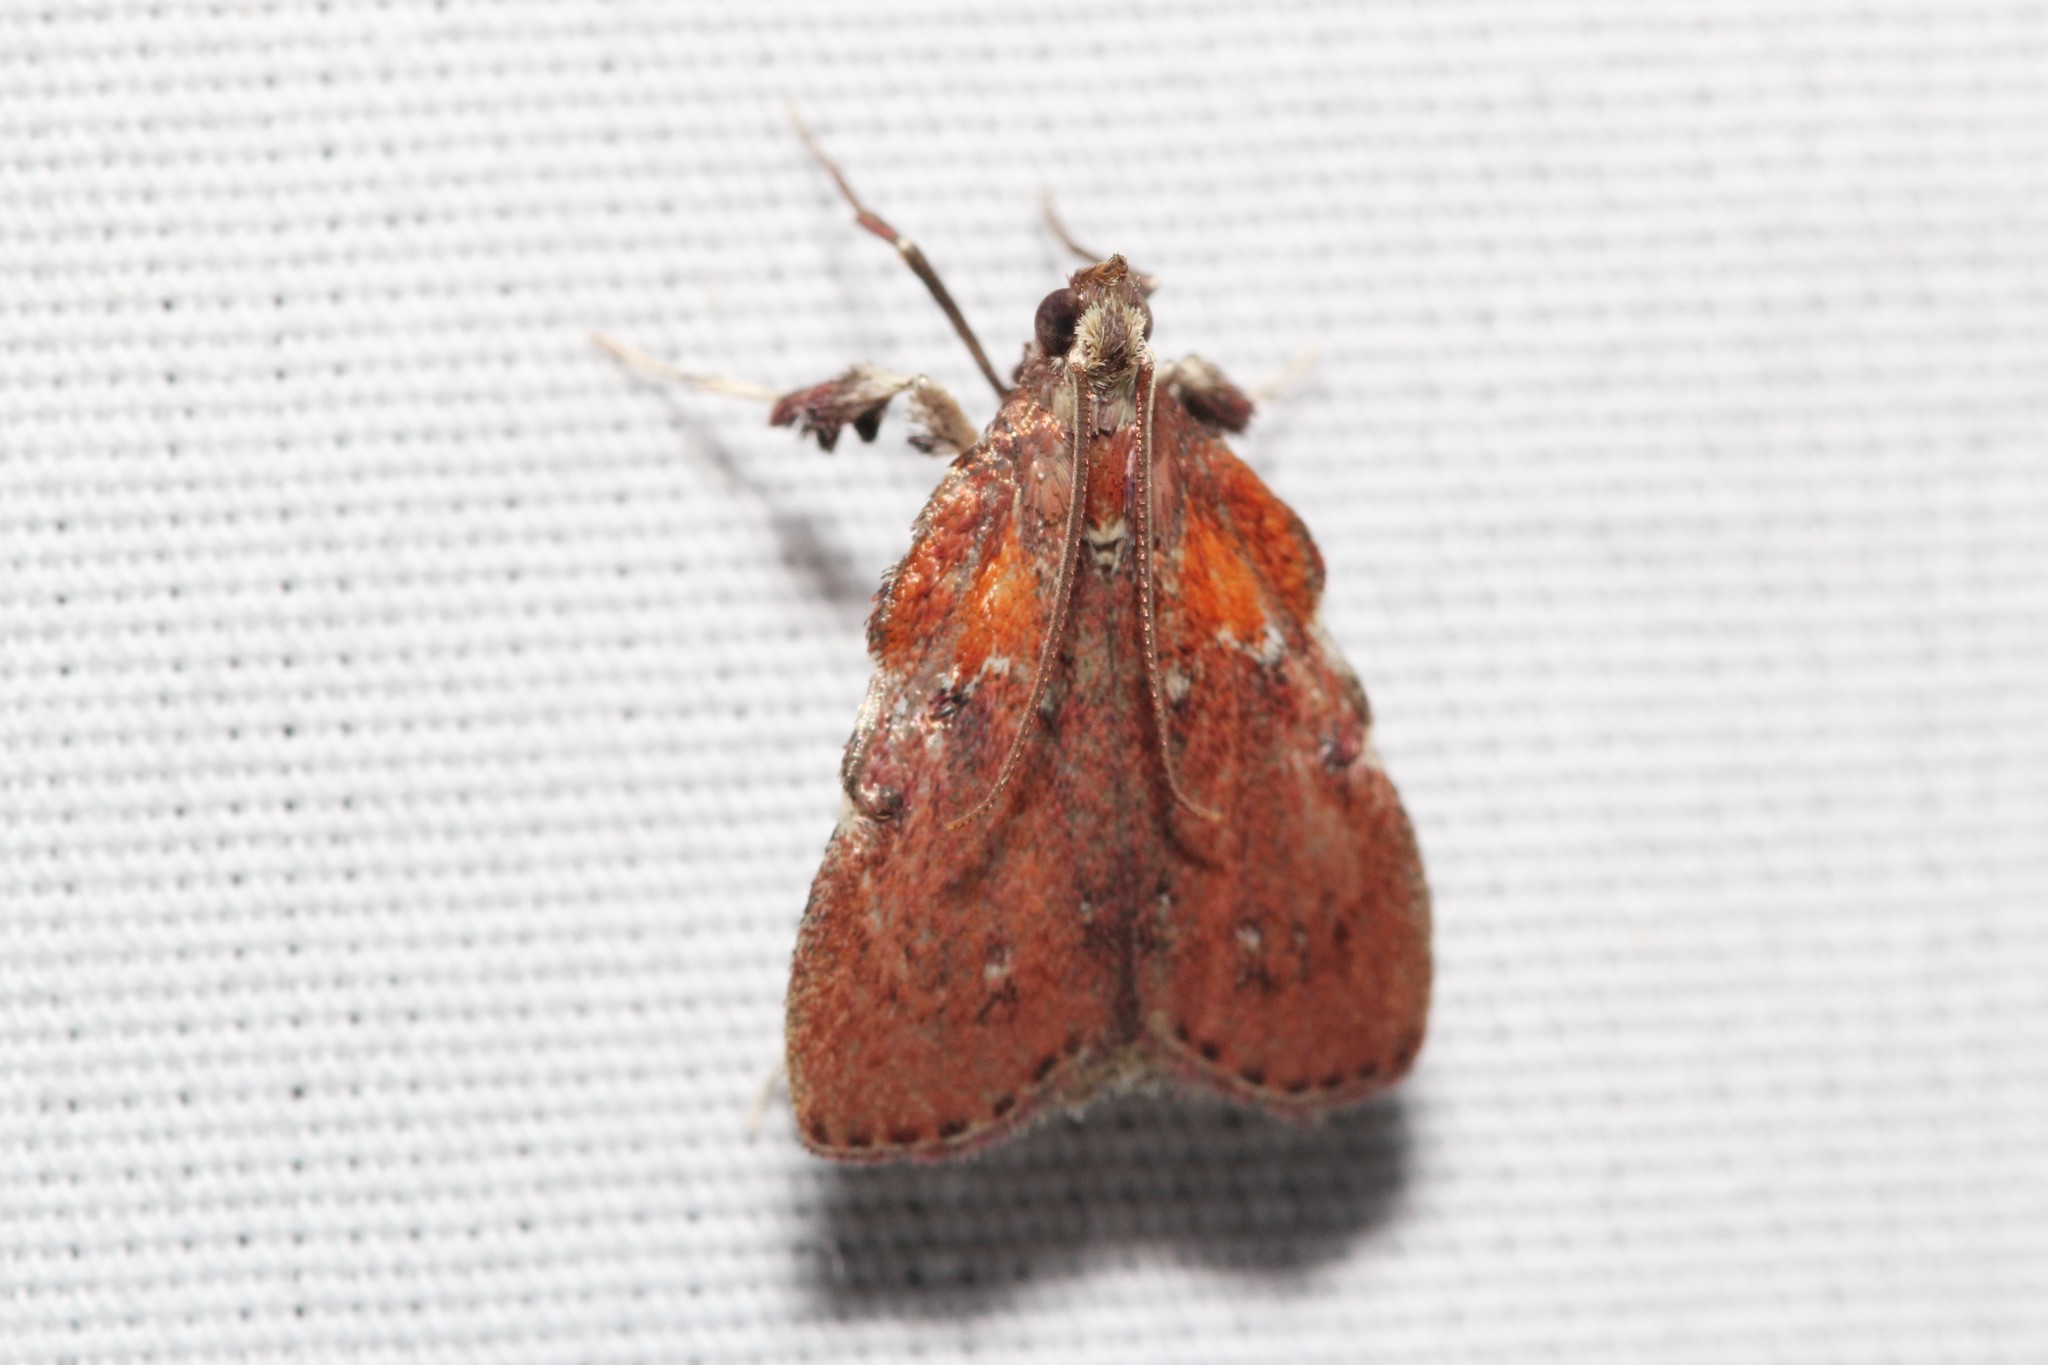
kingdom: Animalia
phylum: Arthropoda
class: Insecta
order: Lepidoptera
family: Pyralidae
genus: Galasa
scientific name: Galasa nigrinodis
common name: Boxwood leaftier moth
